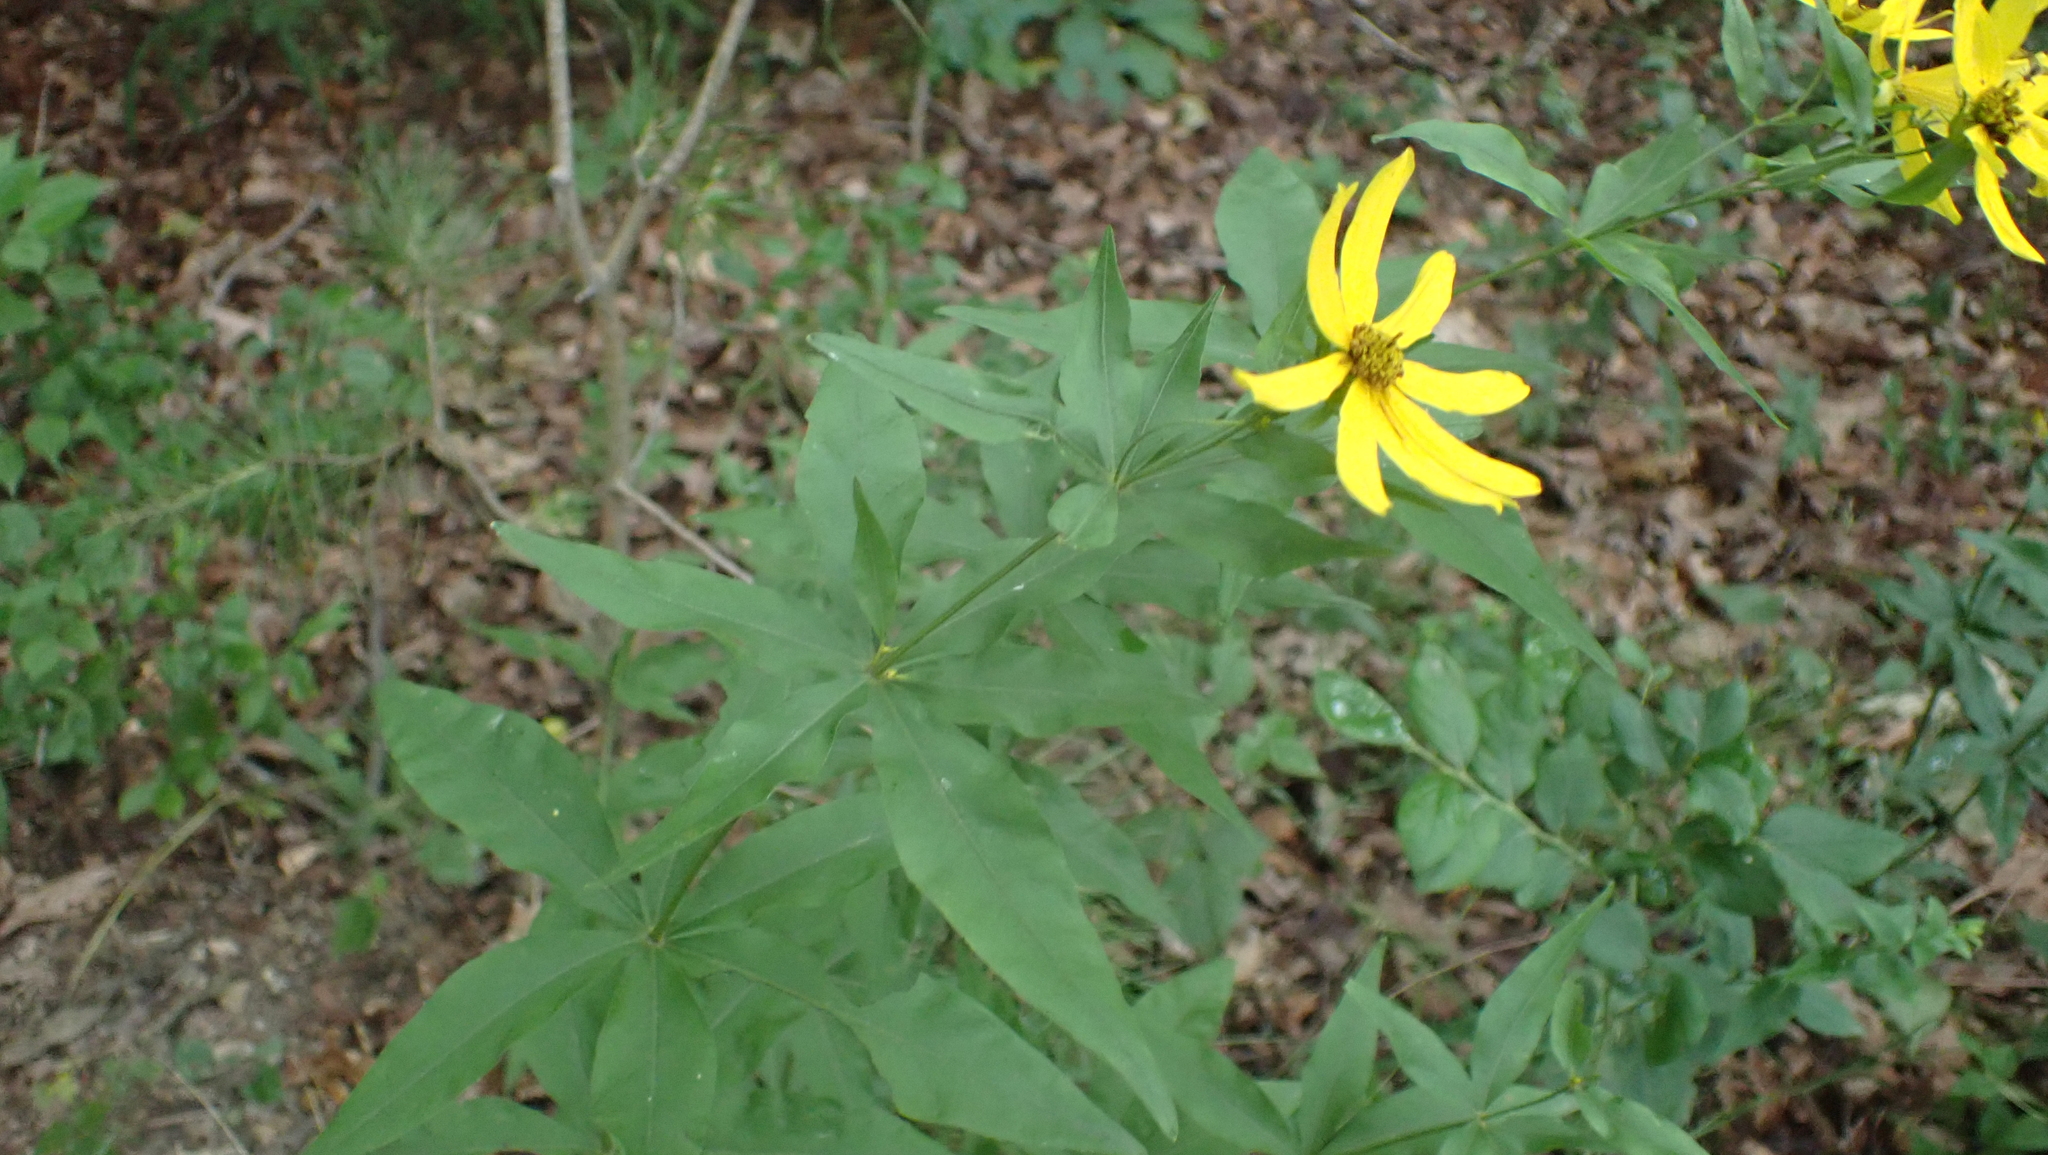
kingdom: Plantae
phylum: Tracheophyta
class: Magnoliopsida
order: Asterales
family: Asteraceae
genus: Coreopsis
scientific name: Coreopsis major
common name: Forest tickseed
